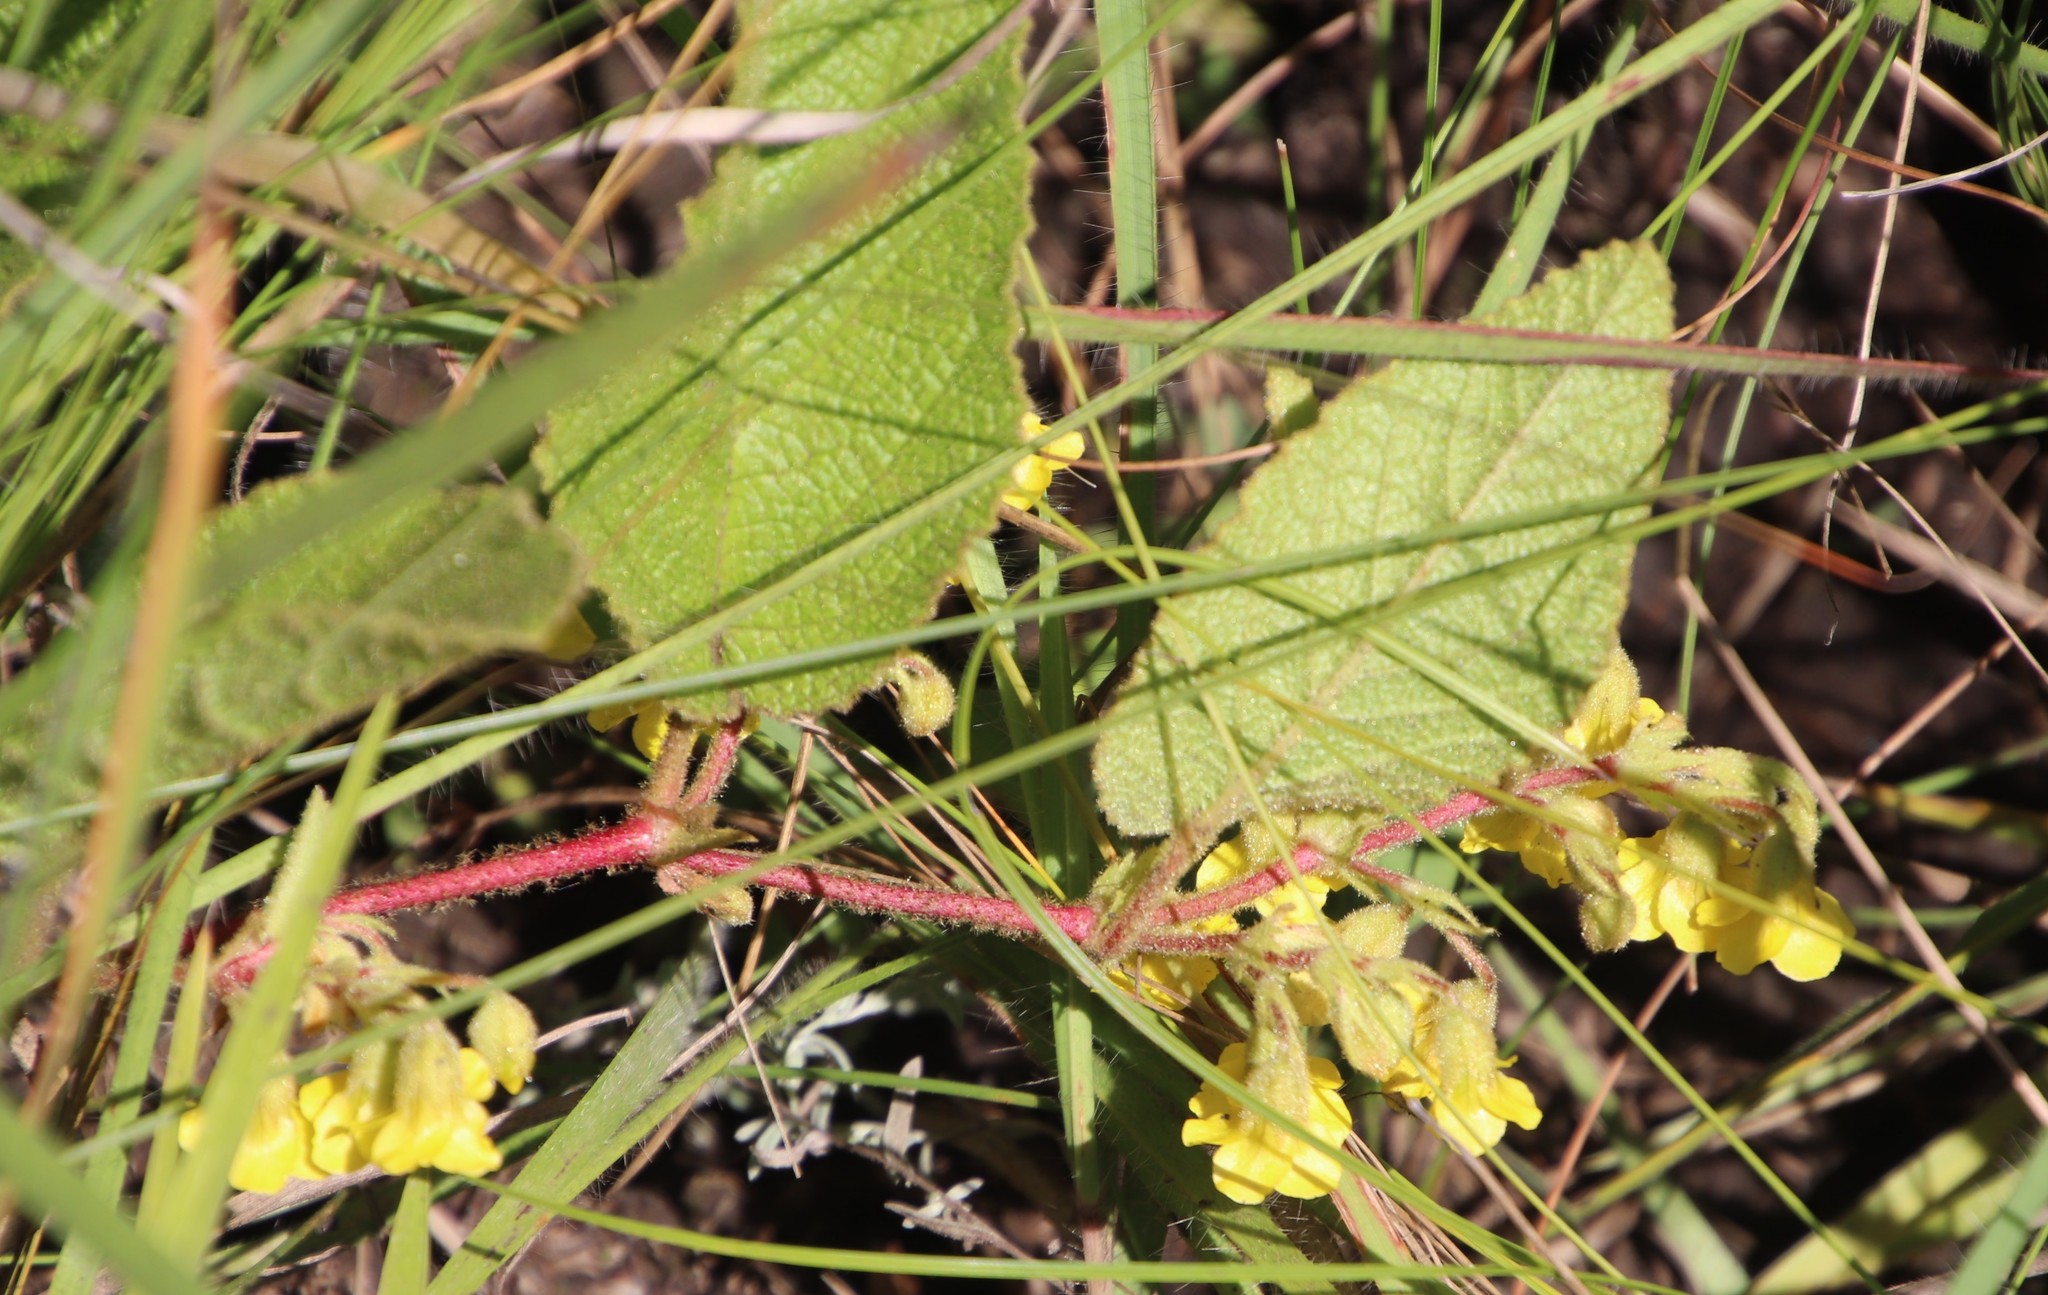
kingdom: Plantae
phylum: Tracheophyta
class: Magnoliopsida
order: Malvales
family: Malvaceae
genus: Hermannia
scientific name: Hermannia gerardii
